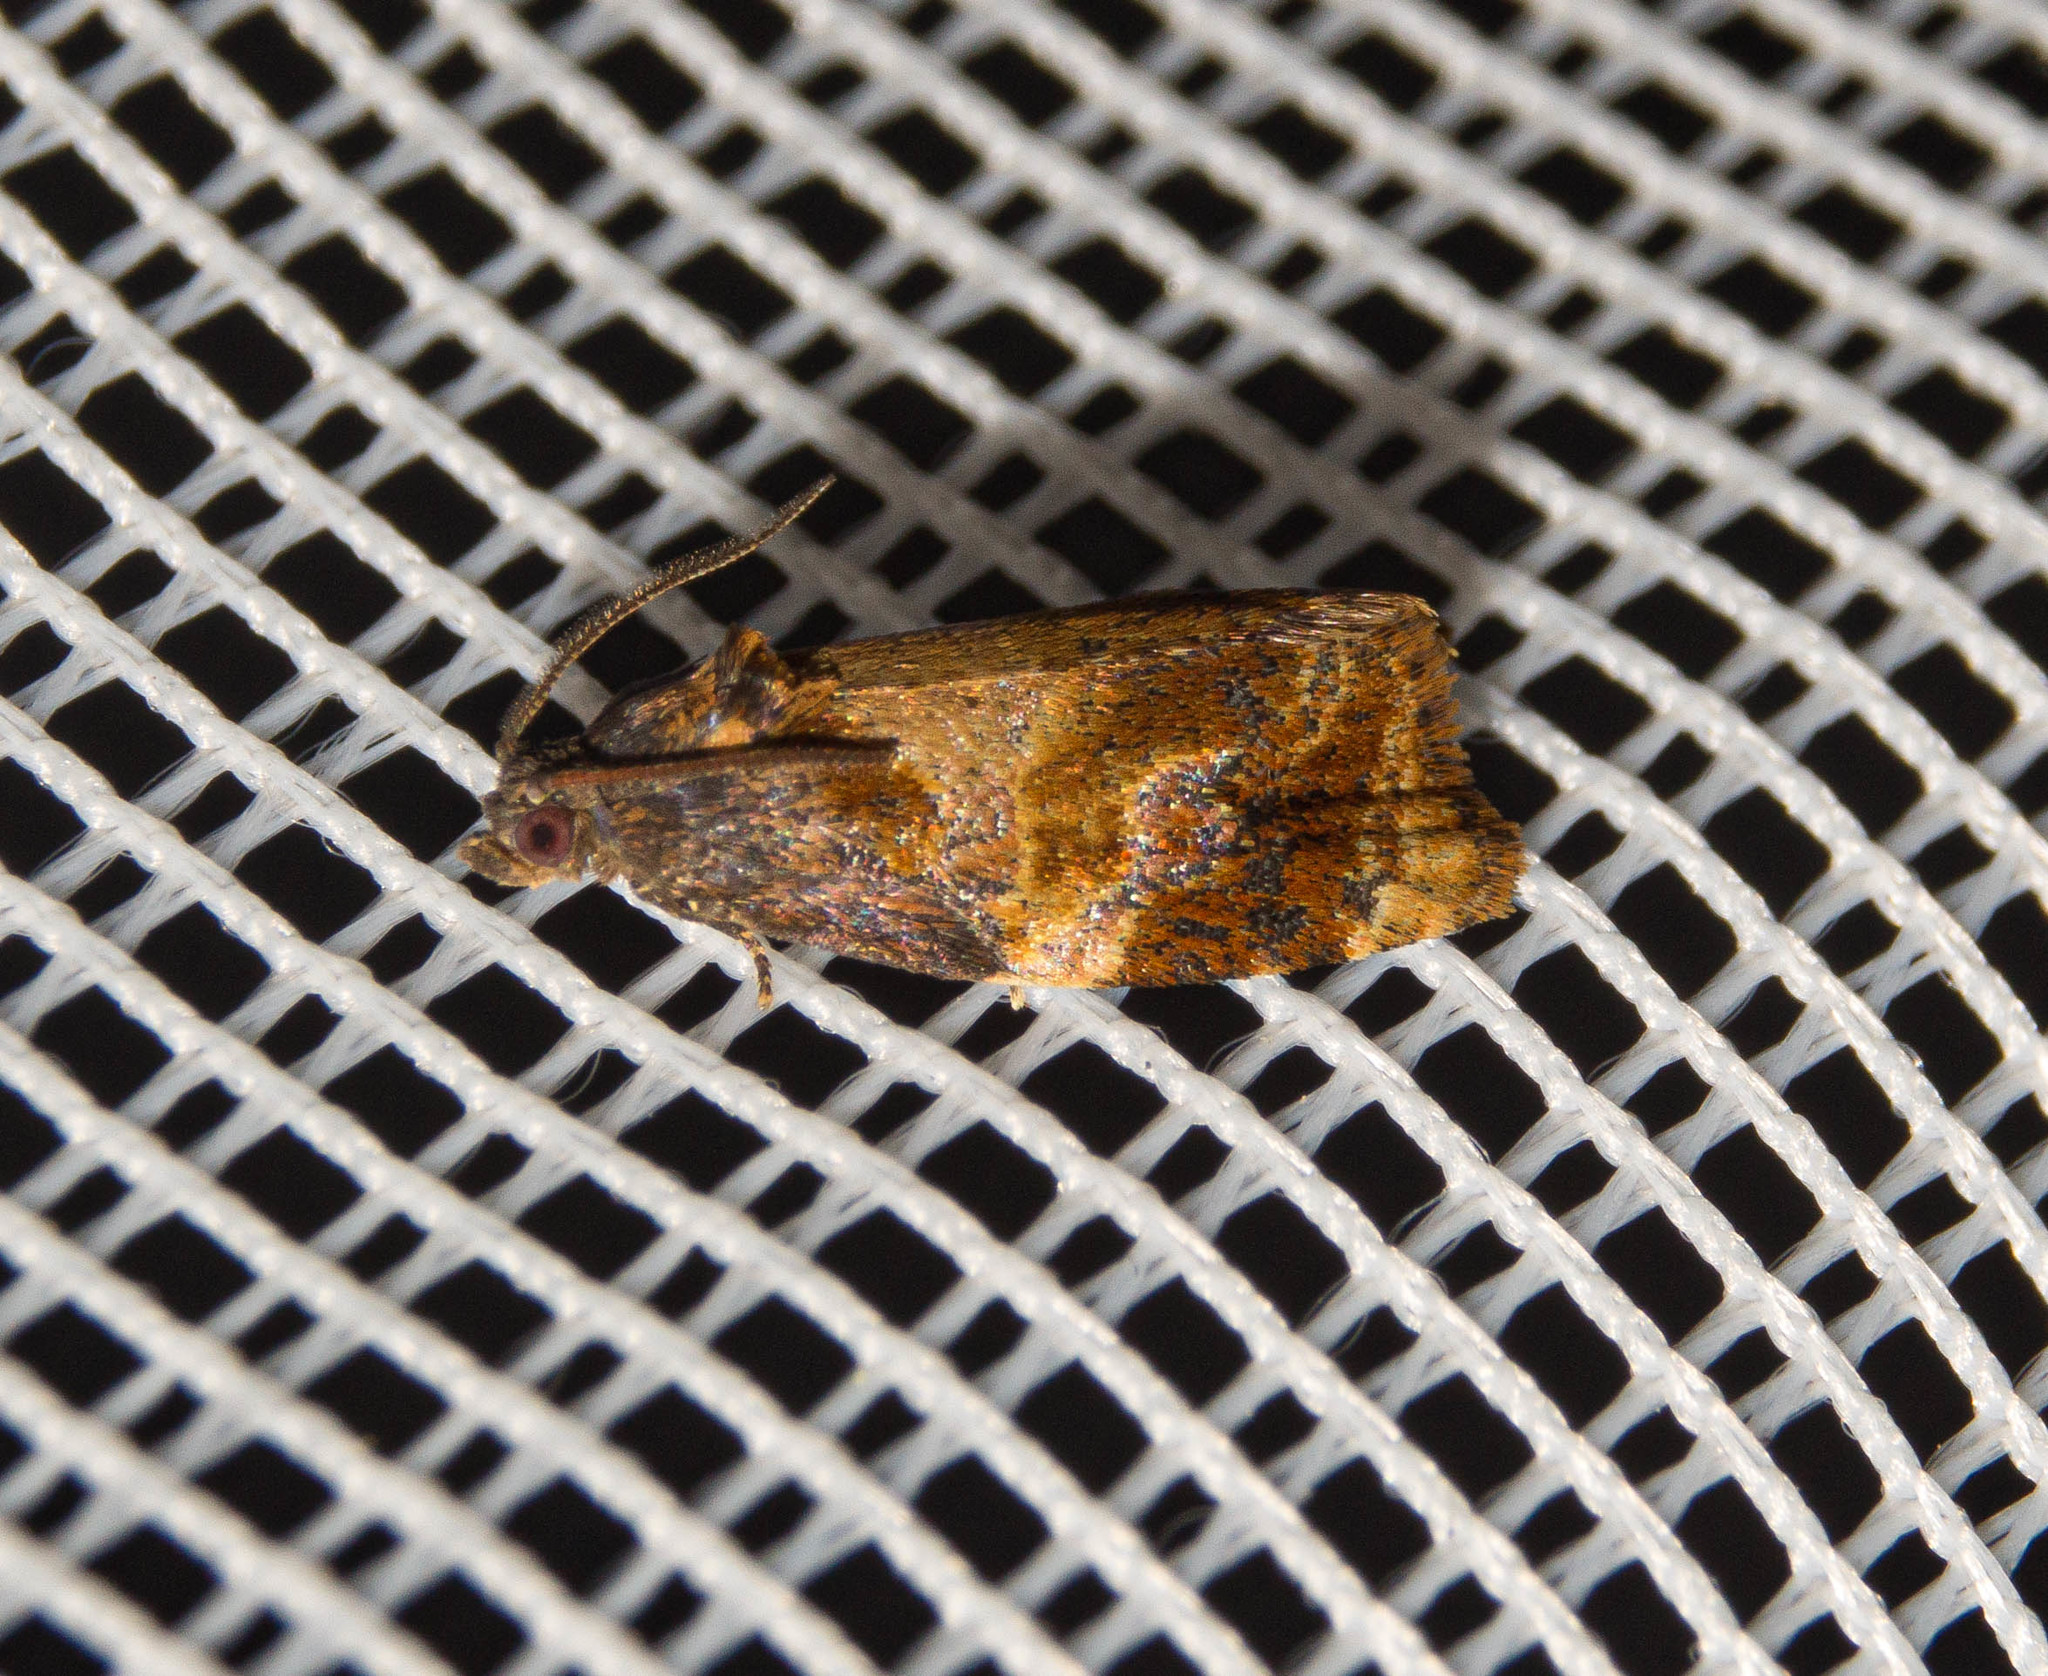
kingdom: Animalia
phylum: Arthropoda
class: Insecta
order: Lepidoptera
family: Tortricidae
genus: Ditula
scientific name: Ditula angustiorana
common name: Red-barred tortrix
